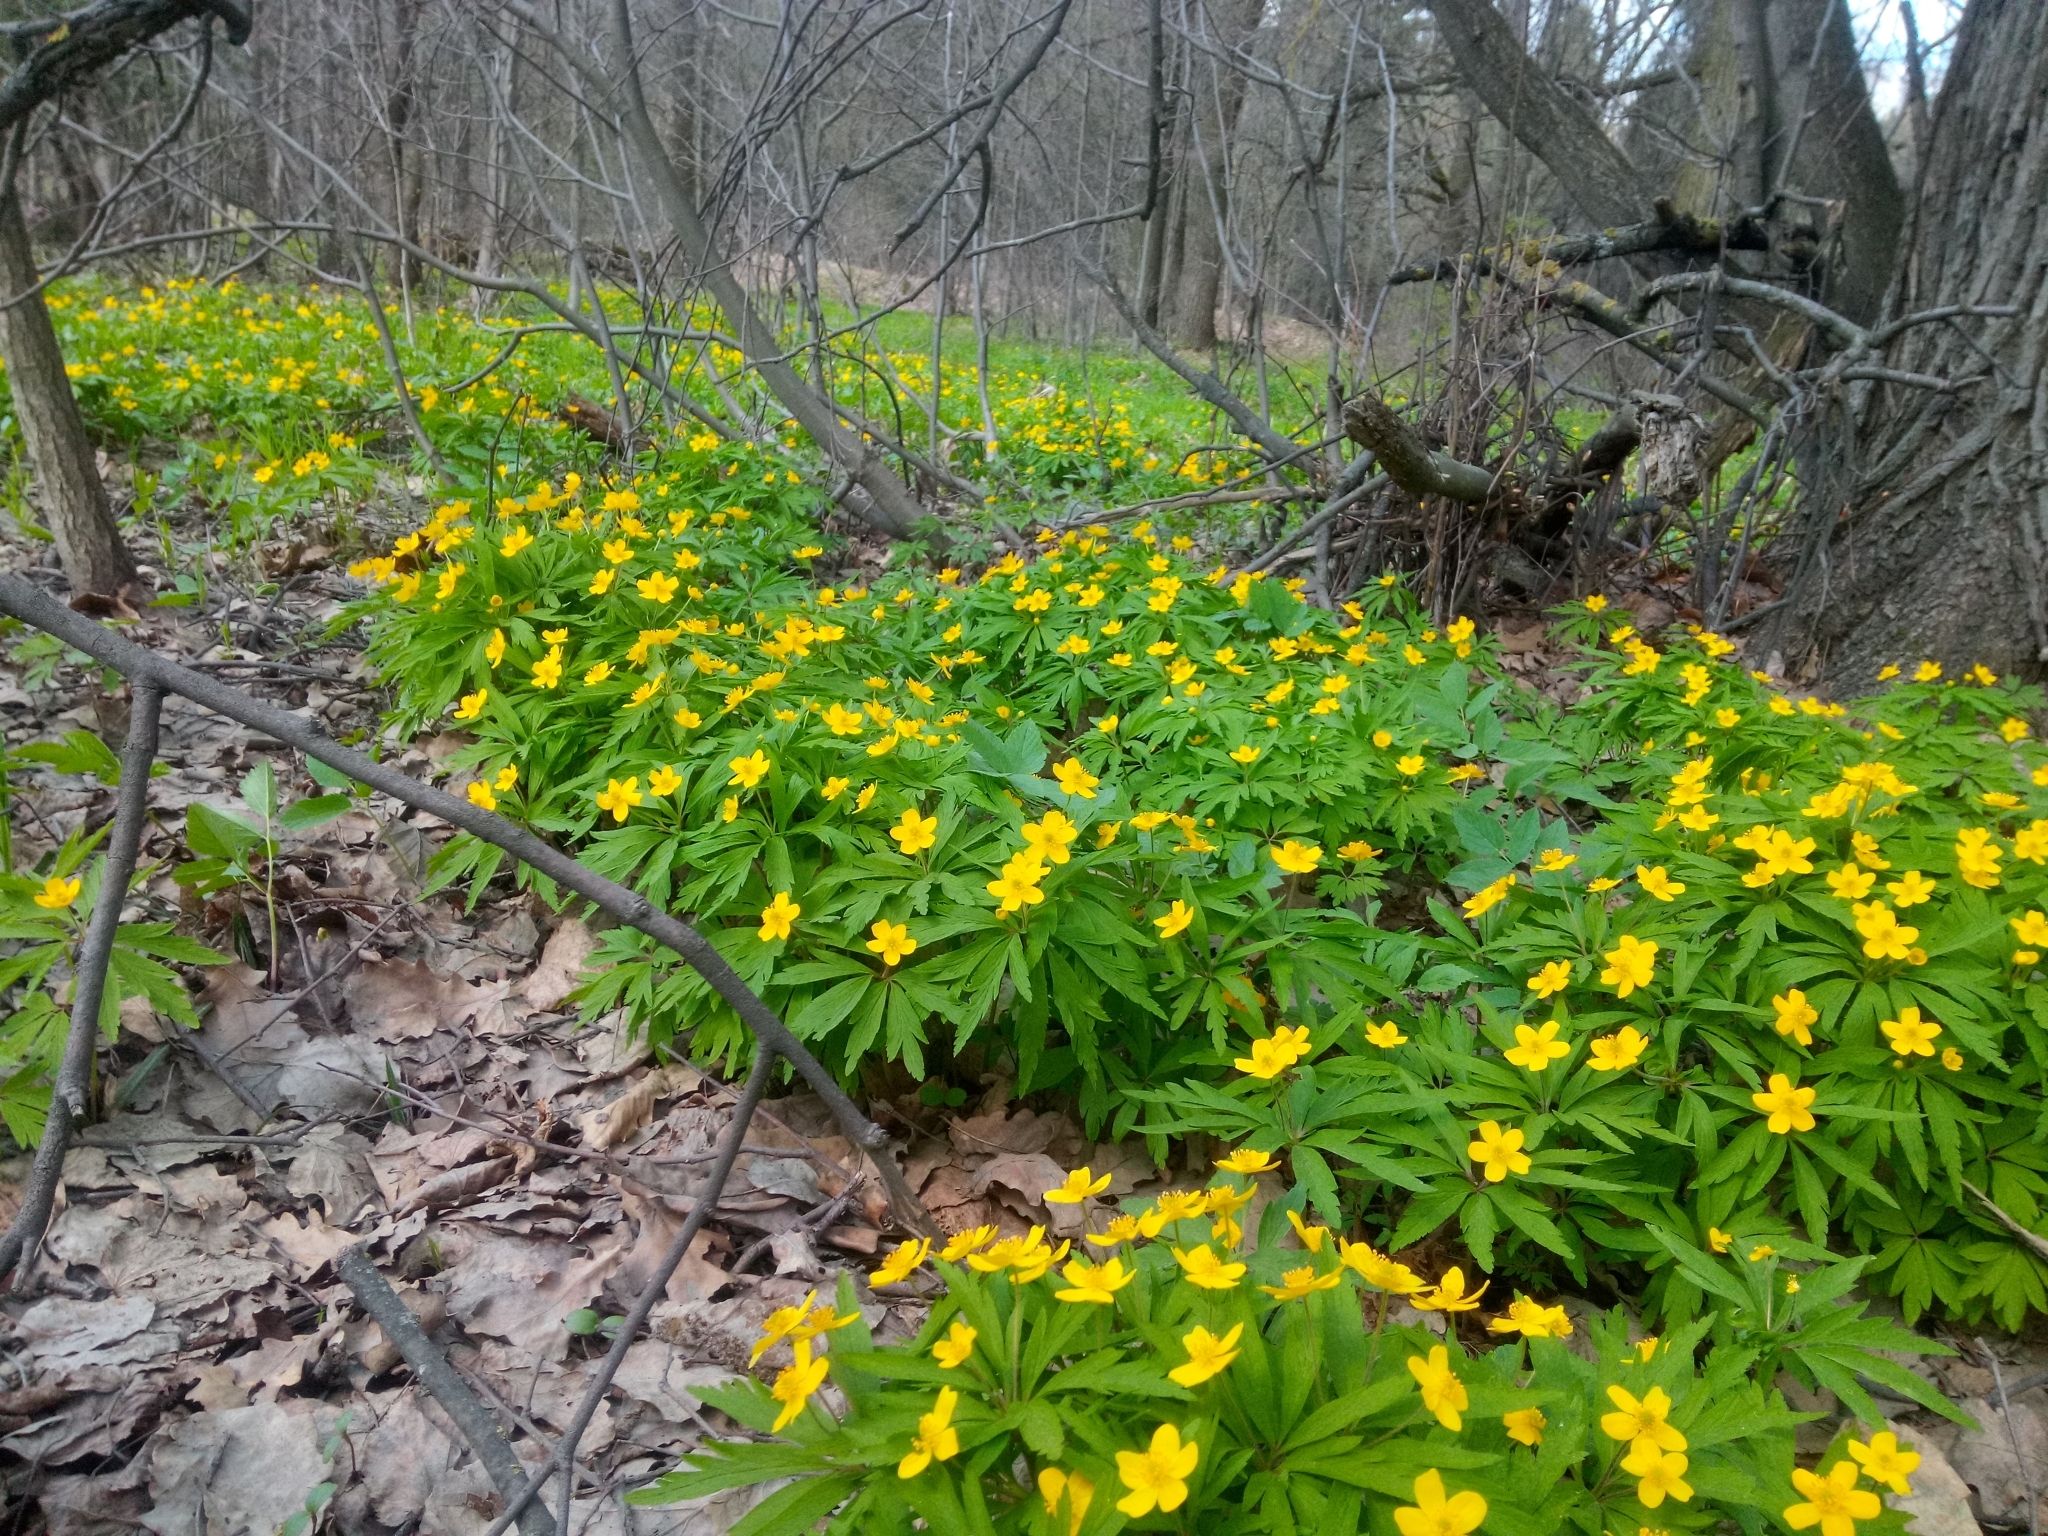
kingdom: Plantae
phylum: Tracheophyta
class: Magnoliopsida
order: Ranunculales
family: Ranunculaceae
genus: Anemone
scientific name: Anemone ranunculoides
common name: Yellow anemone
